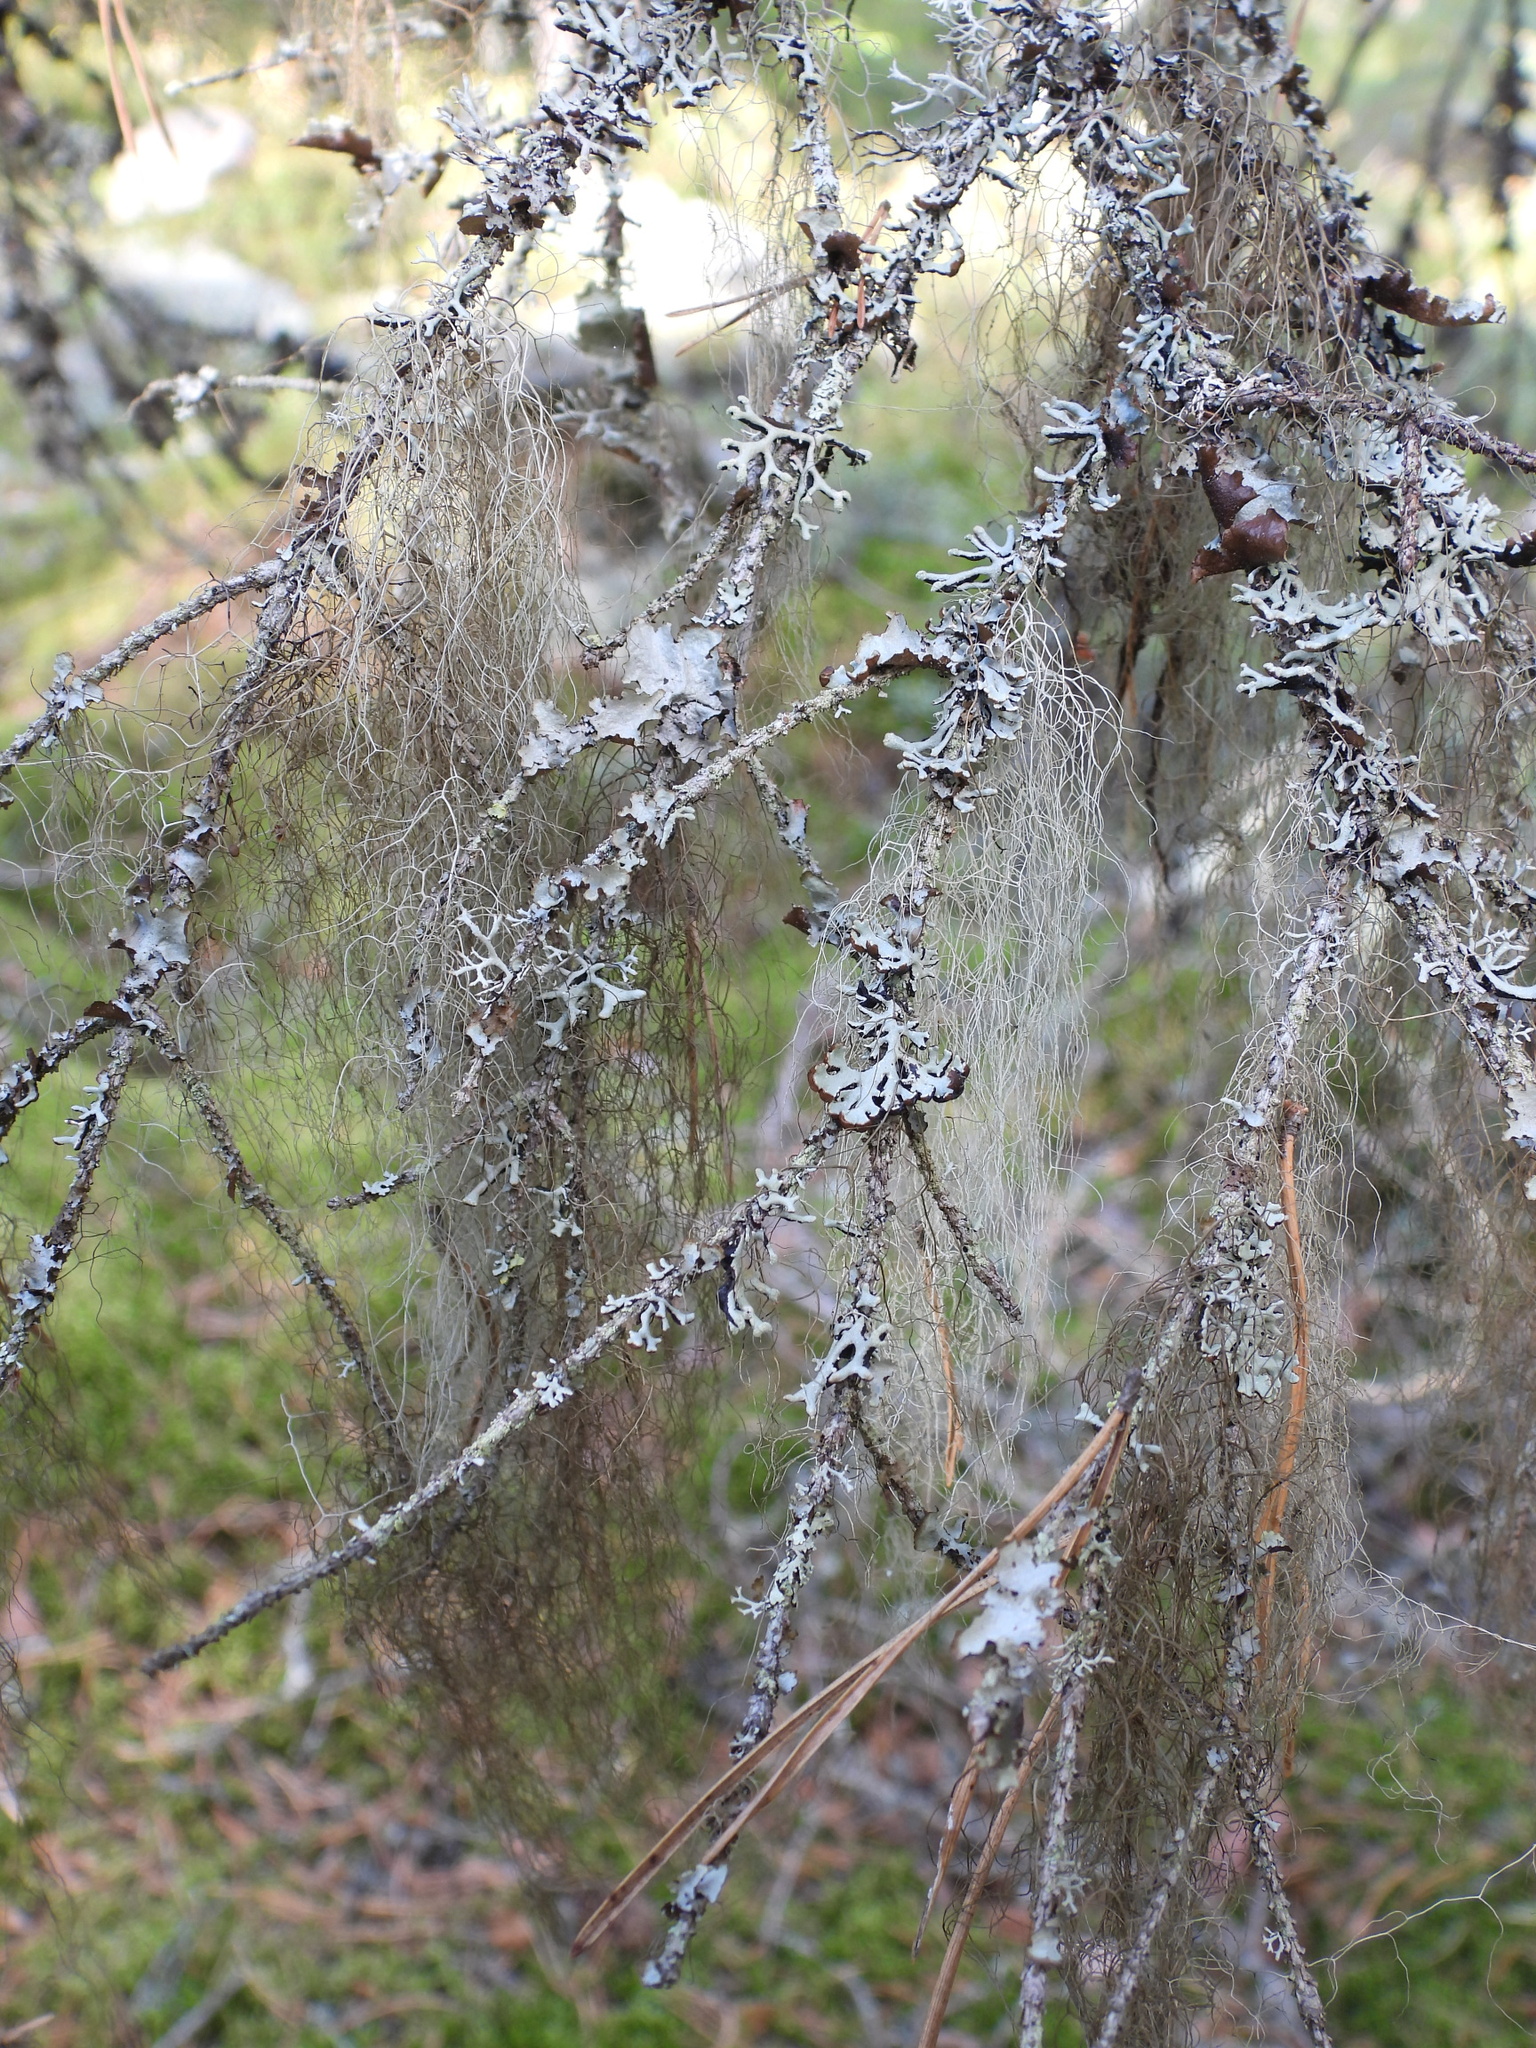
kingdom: Fungi
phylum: Ascomycota
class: Lecanoromycetes
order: Lecanorales
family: Parmeliaceae
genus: Bryoria
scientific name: Bryoria fuscescens
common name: Pale-footed horsehair lichen
